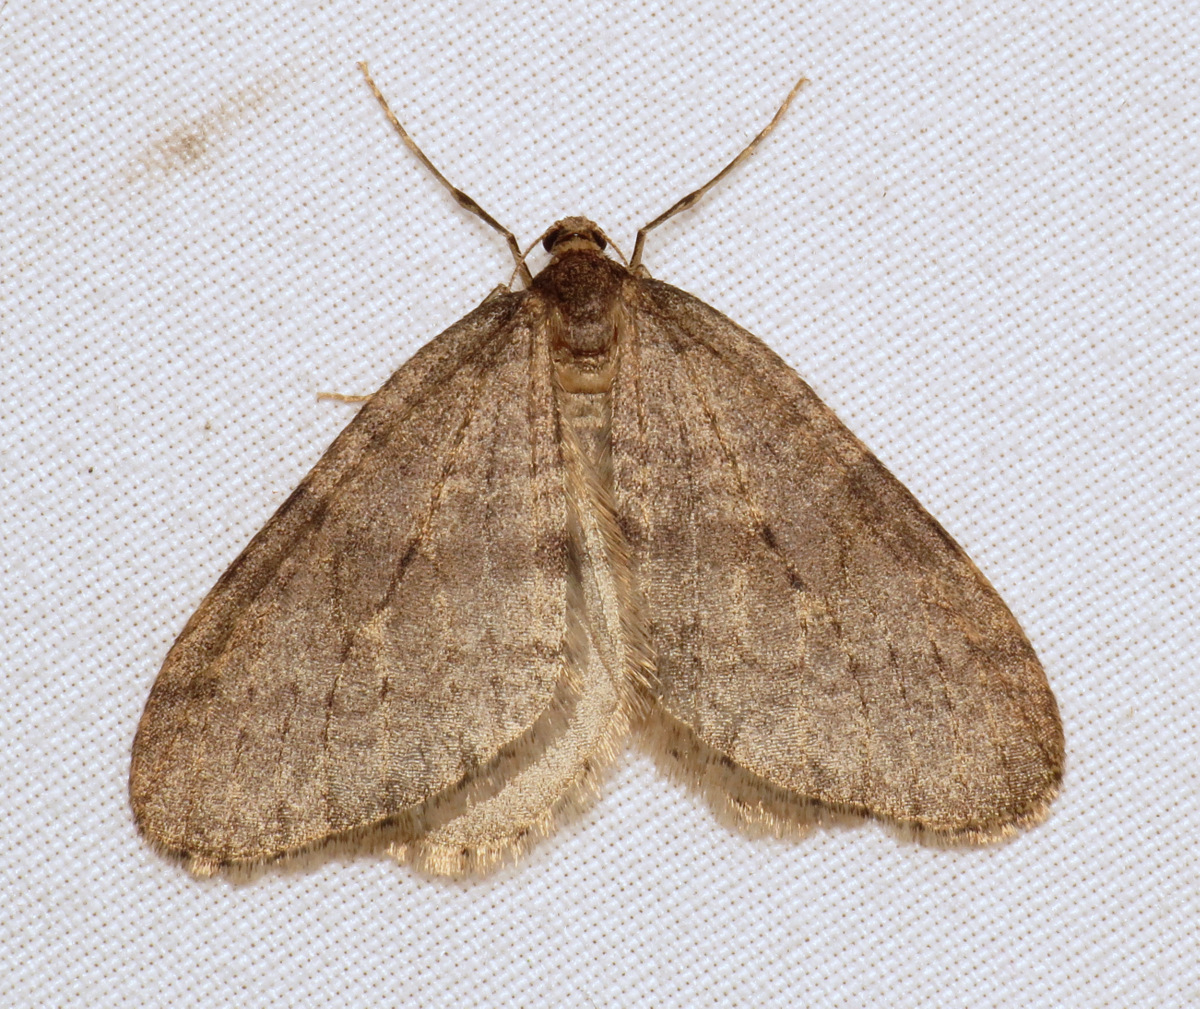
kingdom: Animalia
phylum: Arthropoda
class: Insecta
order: Lepidoptera
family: Geometridae
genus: Operophtera
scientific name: Operophtera brumata
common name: Winter moth
